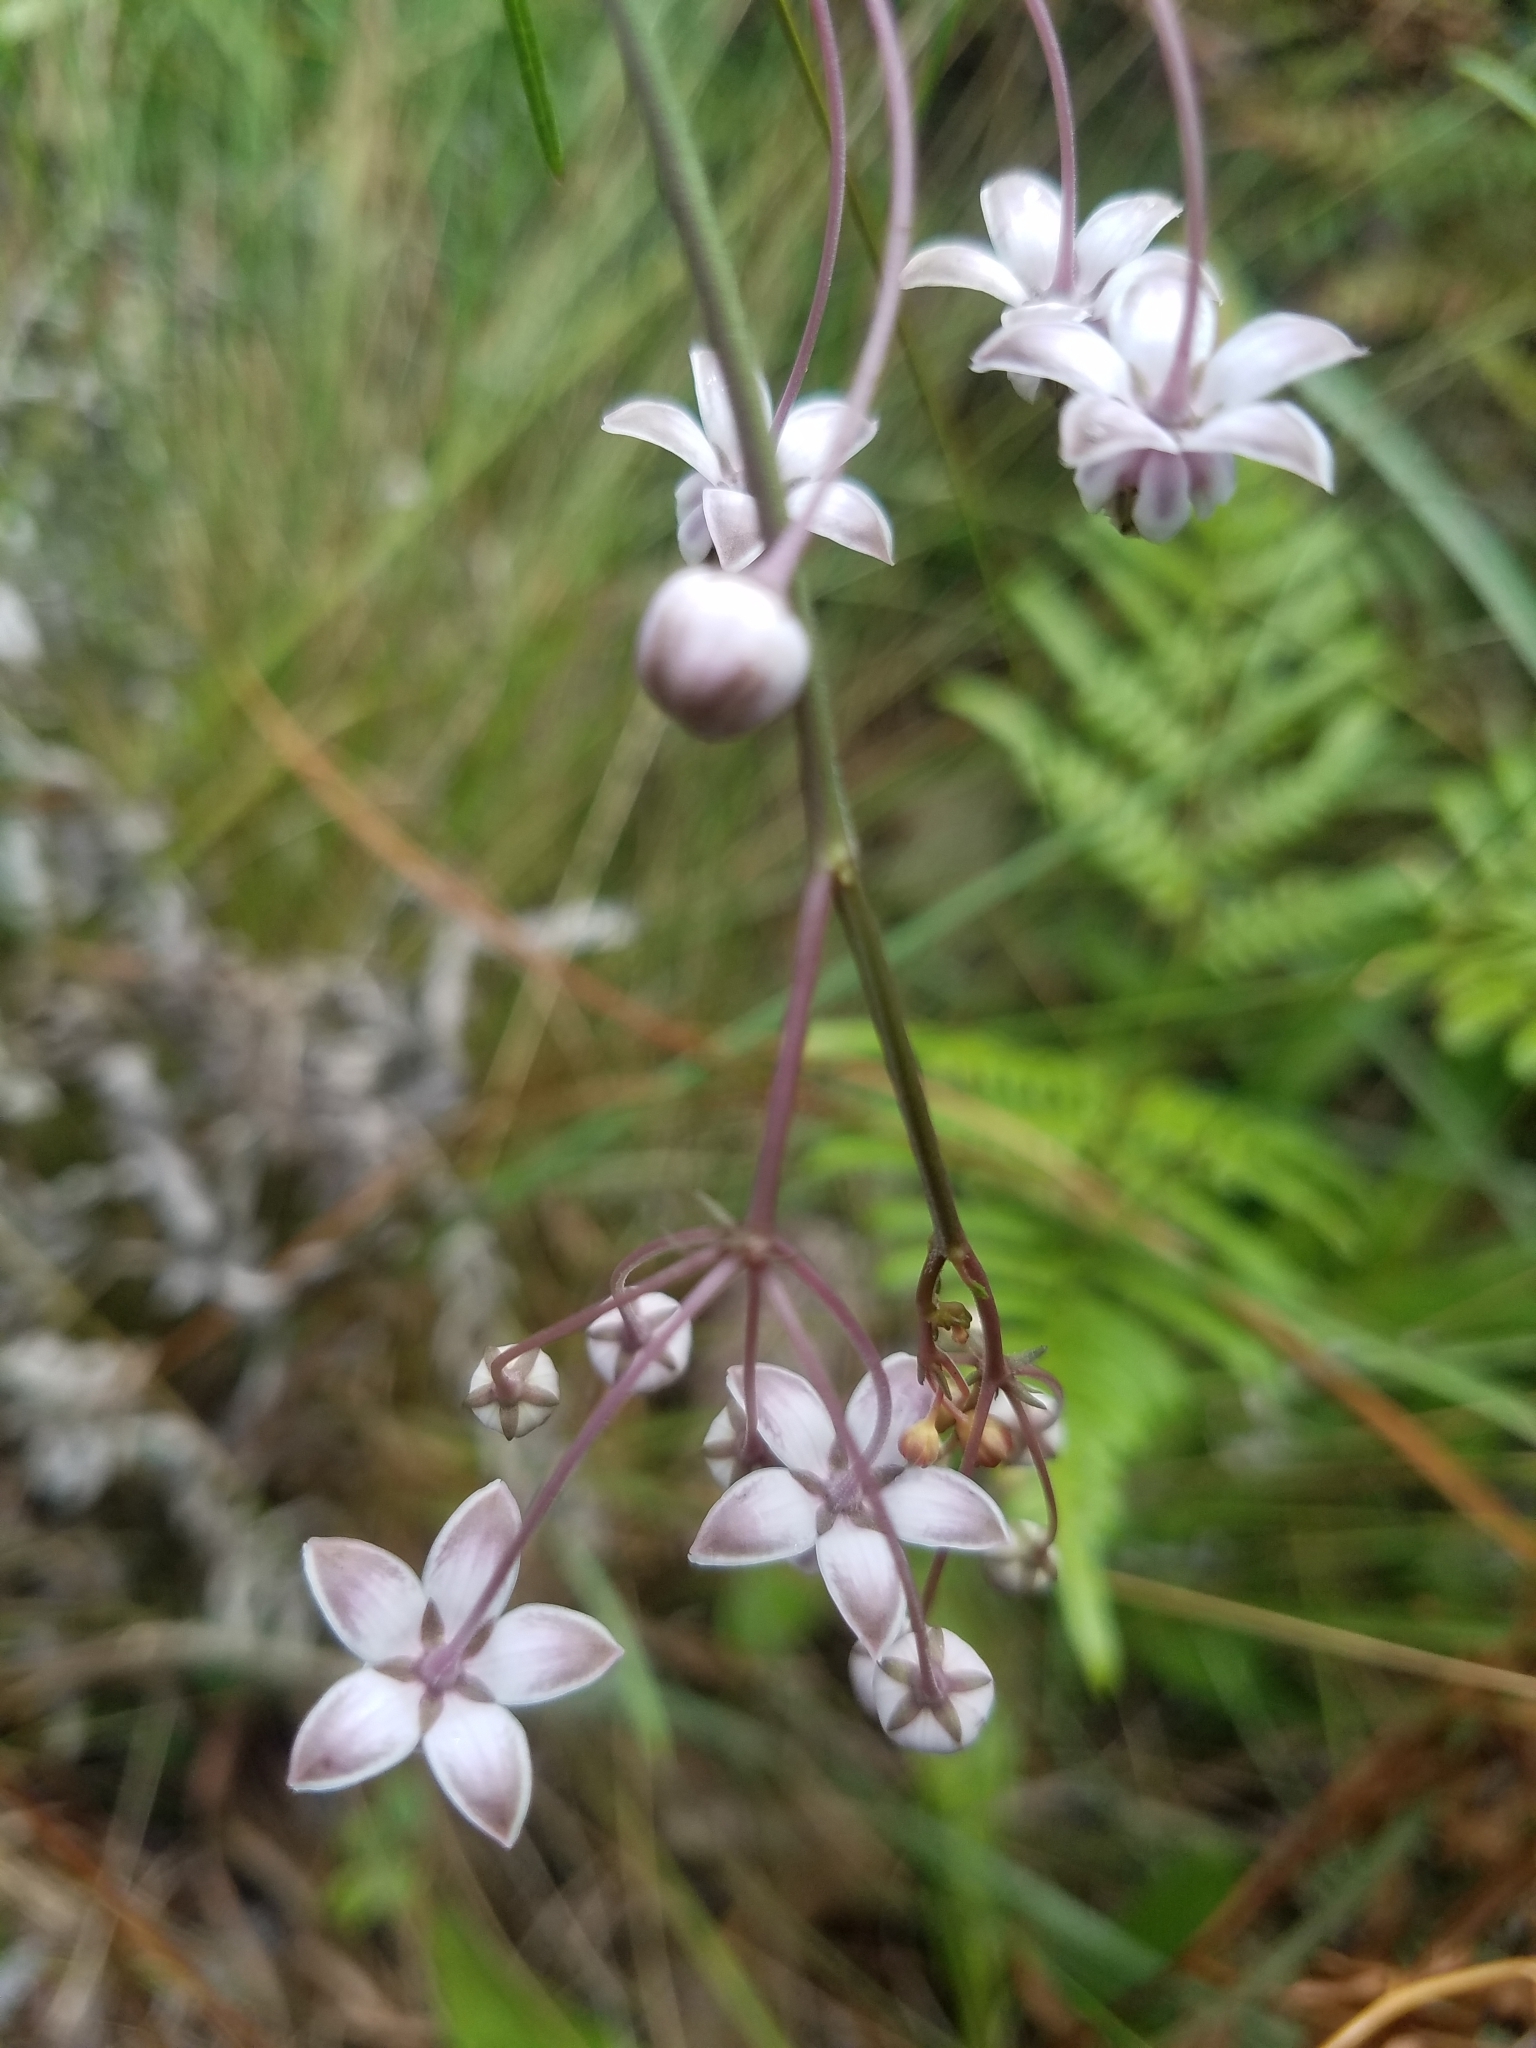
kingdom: Plantae
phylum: Tracheophyta
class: Magnoliopsida
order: Gentianales
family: Apocynaceae
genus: Asclepias
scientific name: Asclepias cinerea
